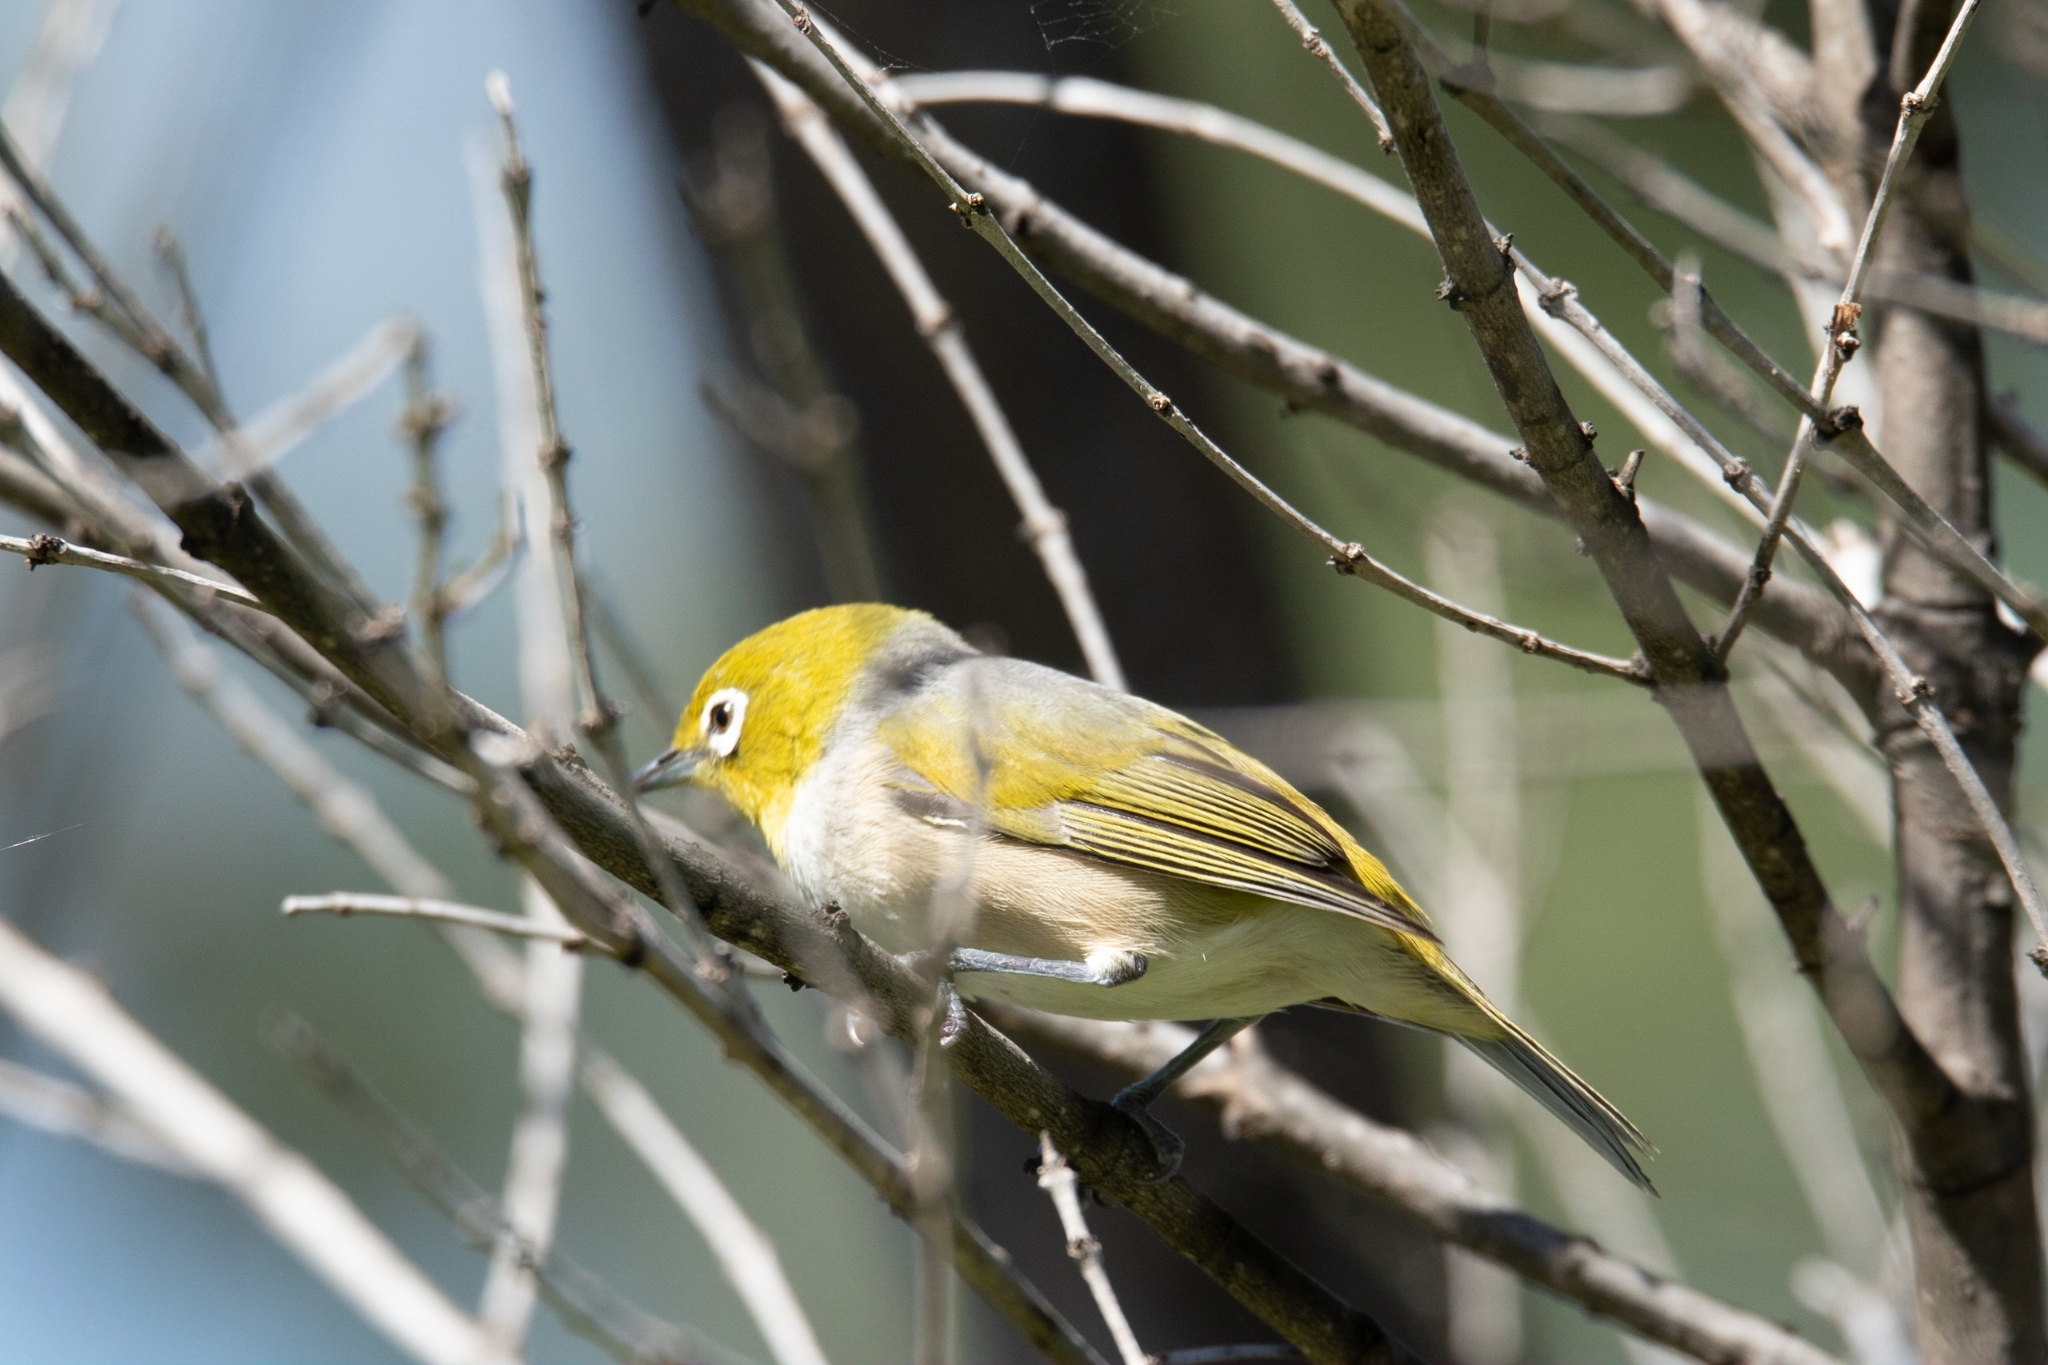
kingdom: Animalia
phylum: Chordata
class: Aves
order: Passeriformes
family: Zosteropidae
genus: Zosterops
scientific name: Zosterops lateralis
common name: Silvereye
